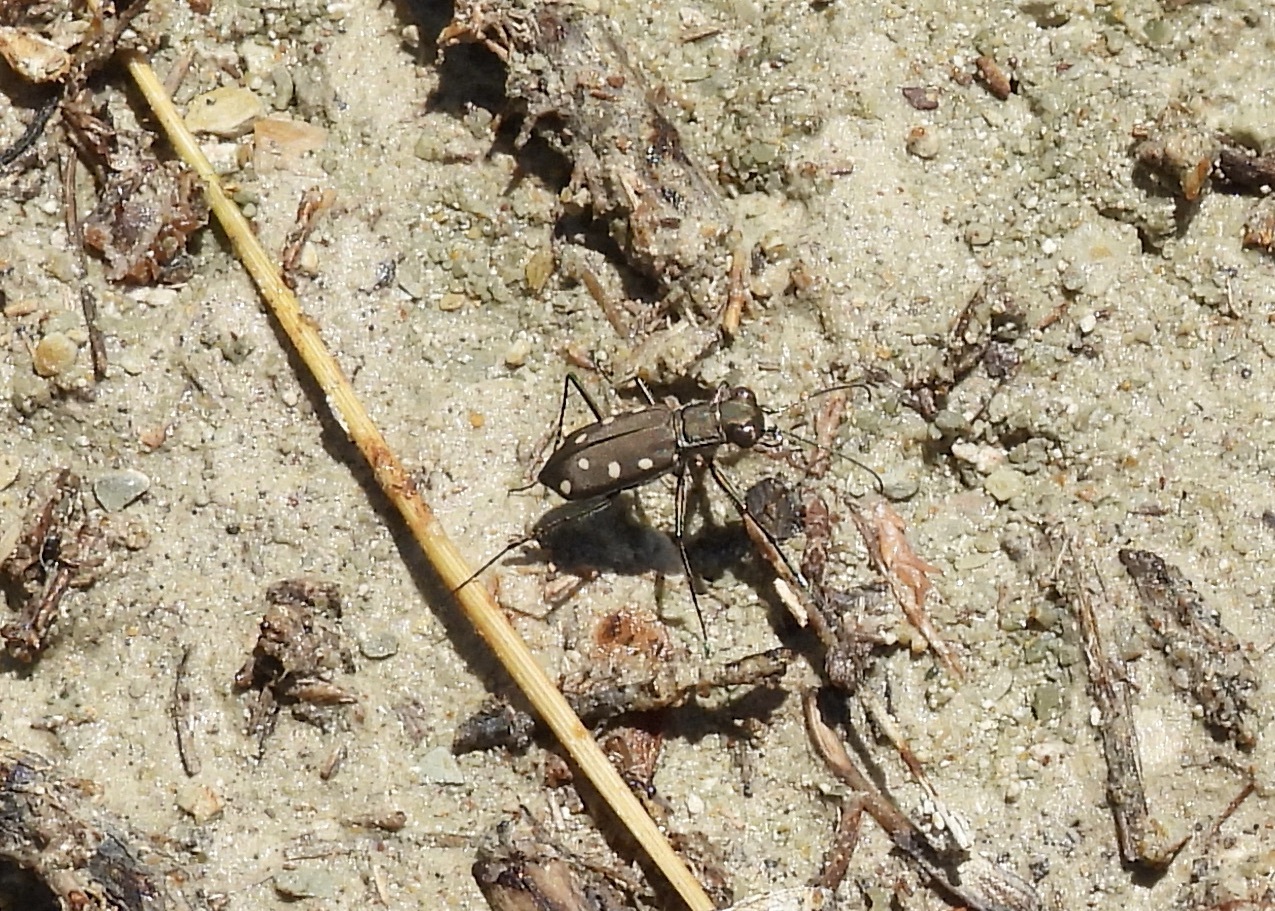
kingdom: Animalia
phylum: Arthropoda
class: Insecta
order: Coleoptera
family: Carabidae
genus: Cicindela
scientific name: Cicindela ocellata
